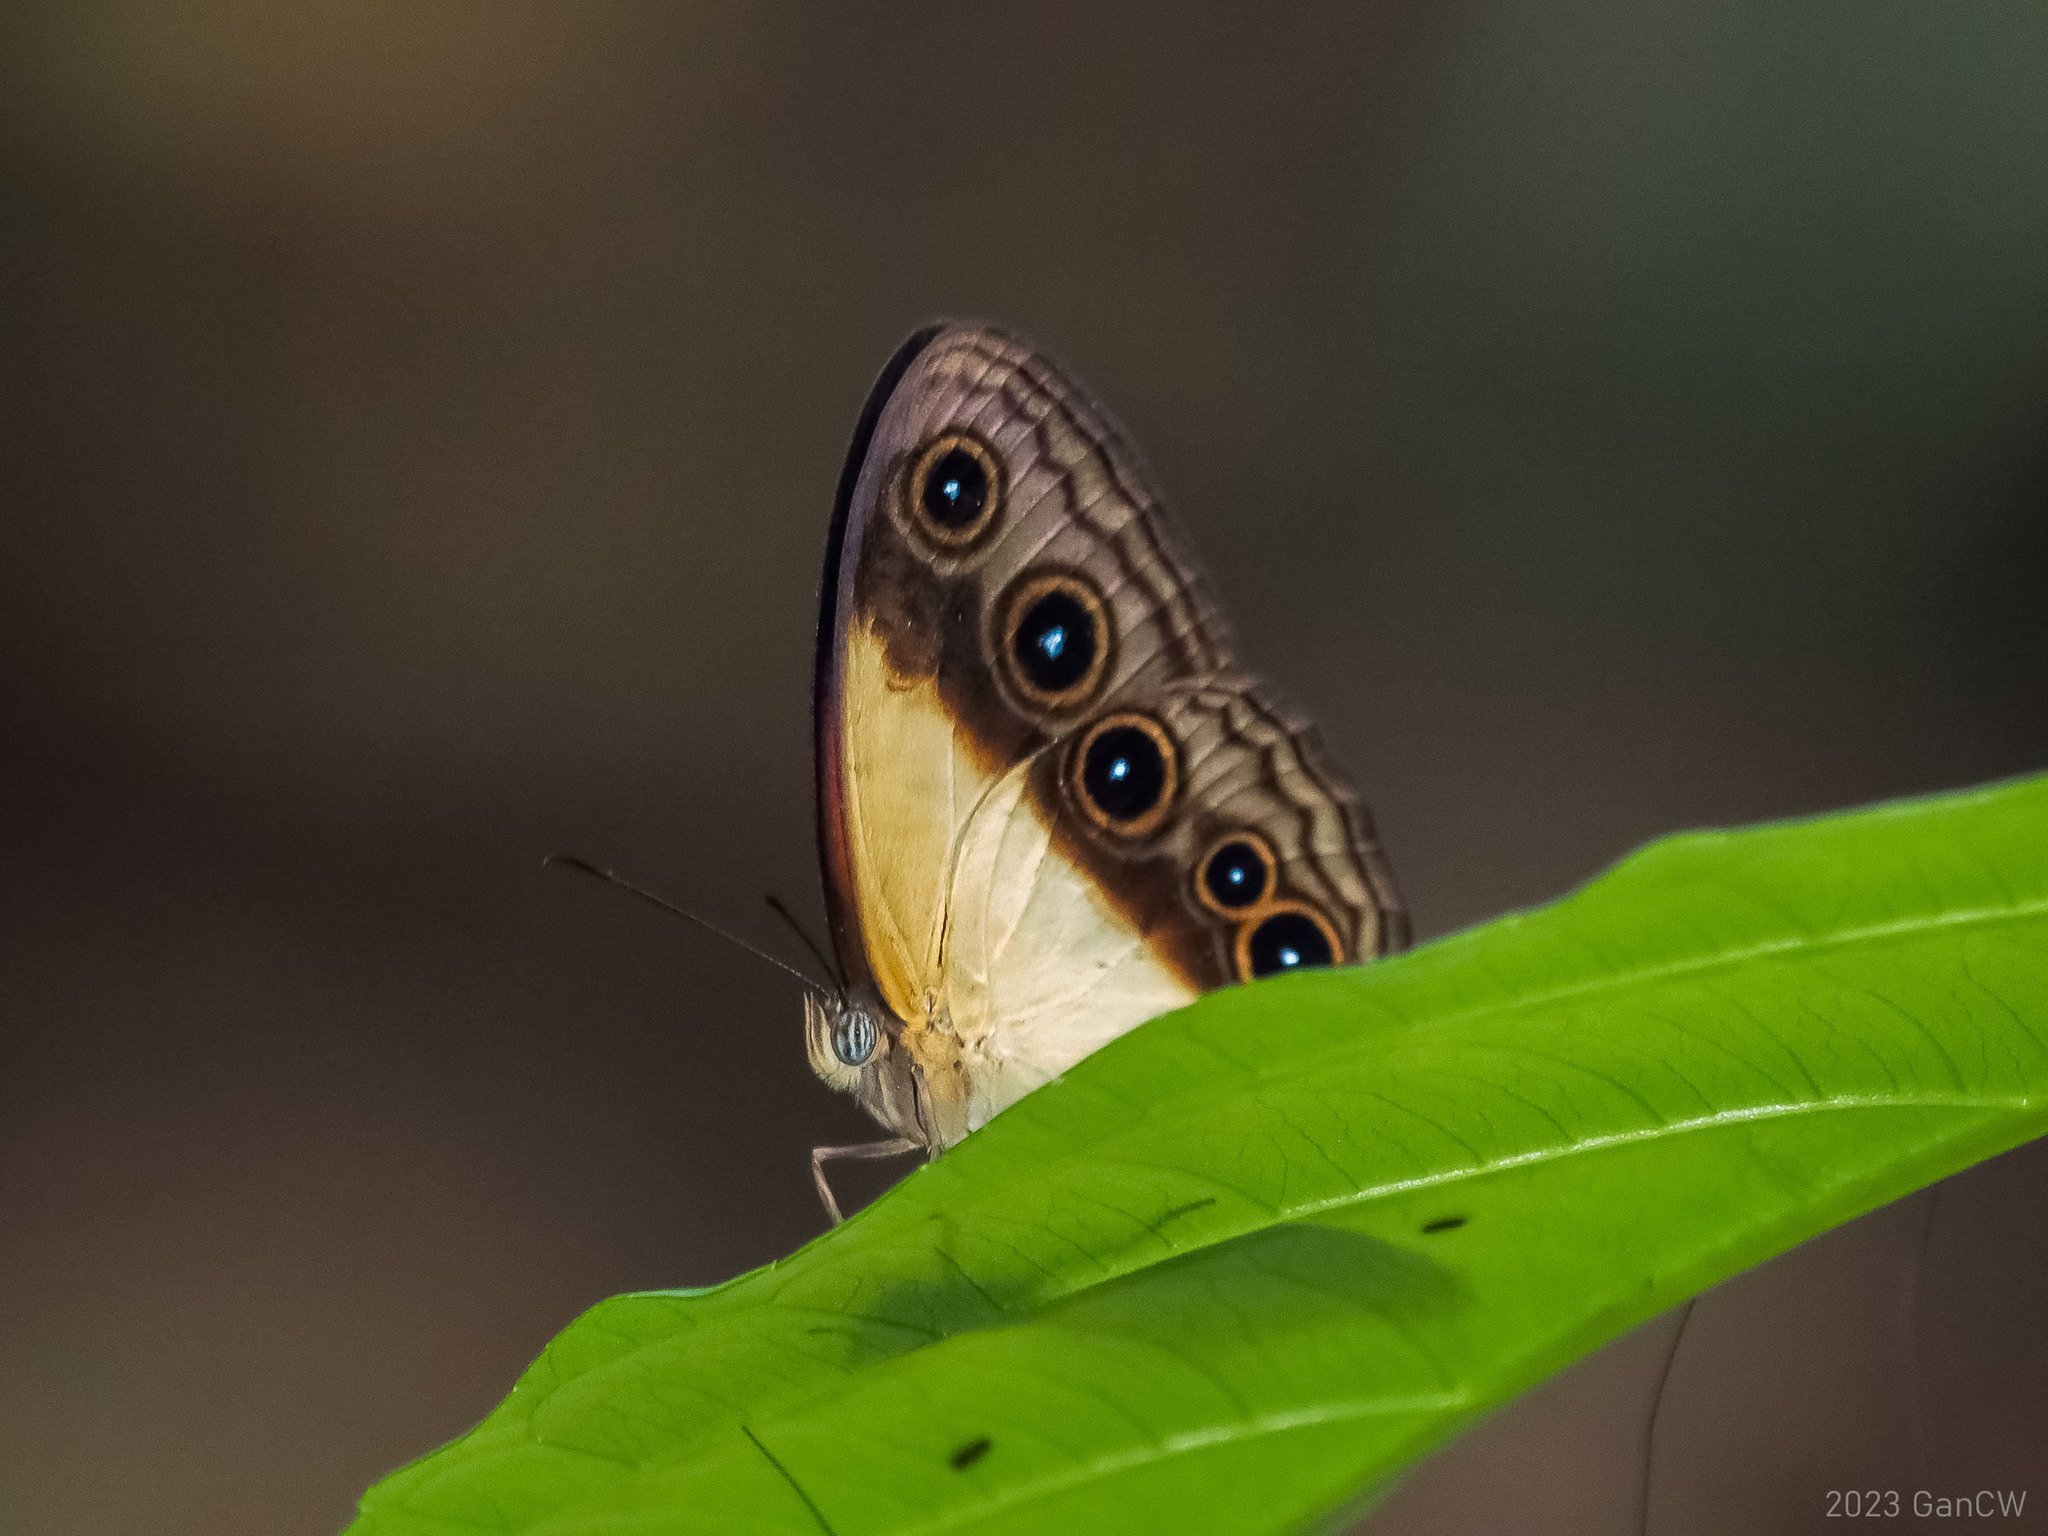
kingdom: Animalia
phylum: Arthropoda
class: Insecta
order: Lepidoptera
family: Nymphalidae
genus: Mycalesis
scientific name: Mycalesis mucia
